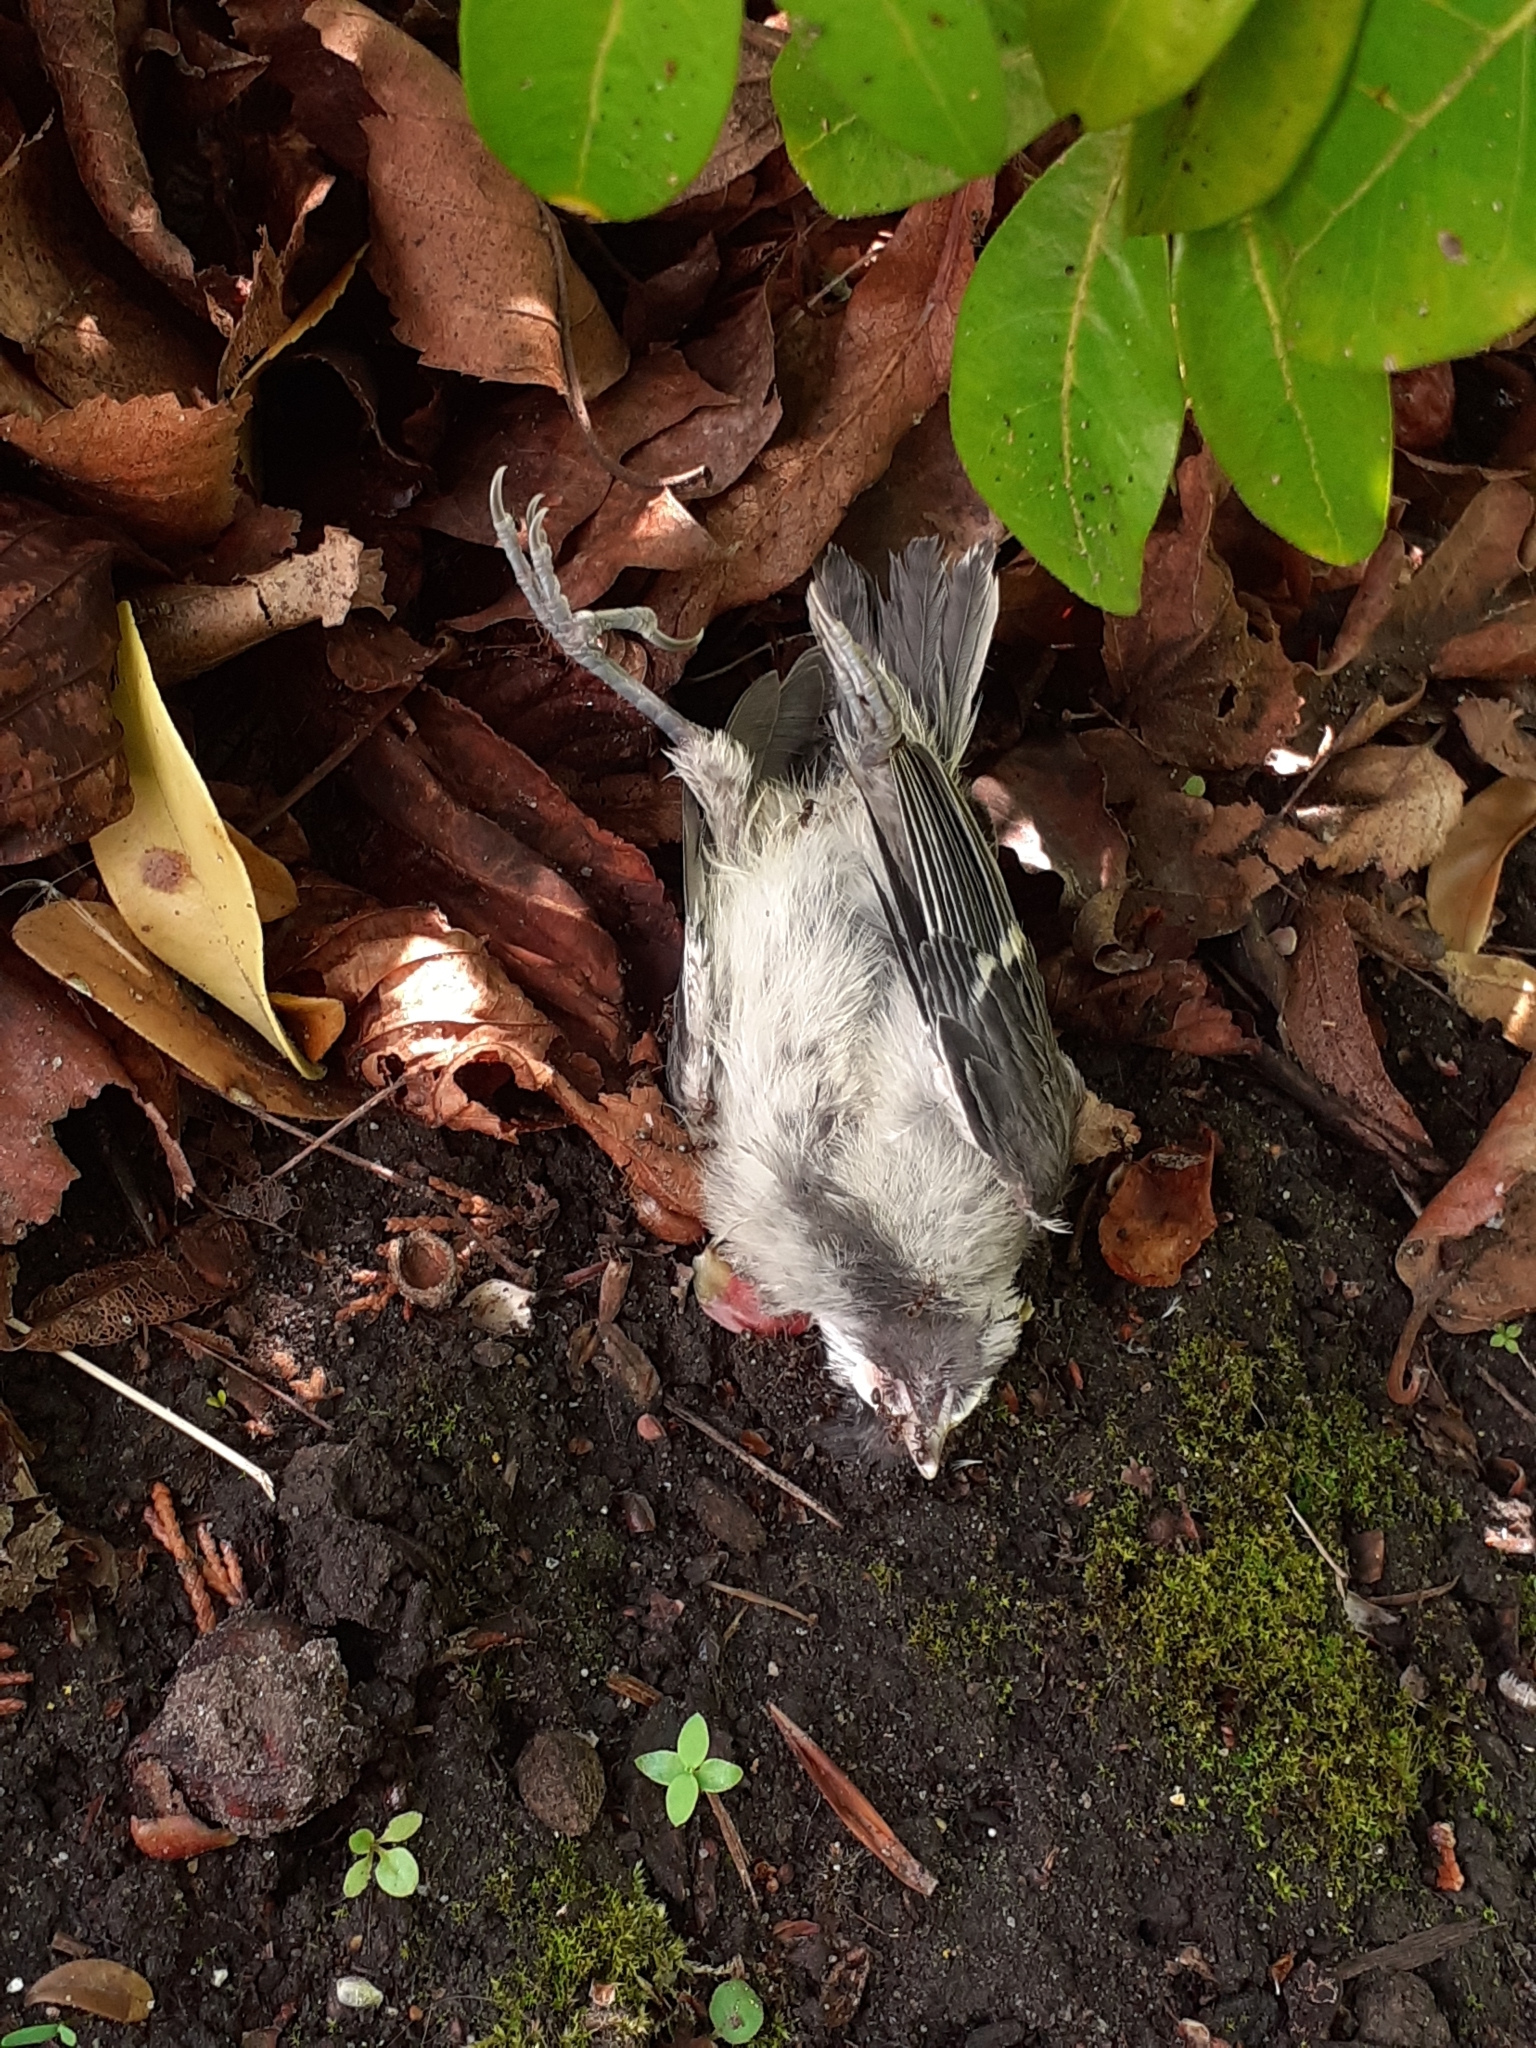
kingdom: Animalia
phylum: Chordata
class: Aves
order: Passeriformes
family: Paridae
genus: Parus
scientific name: Parus major
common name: Great tit
